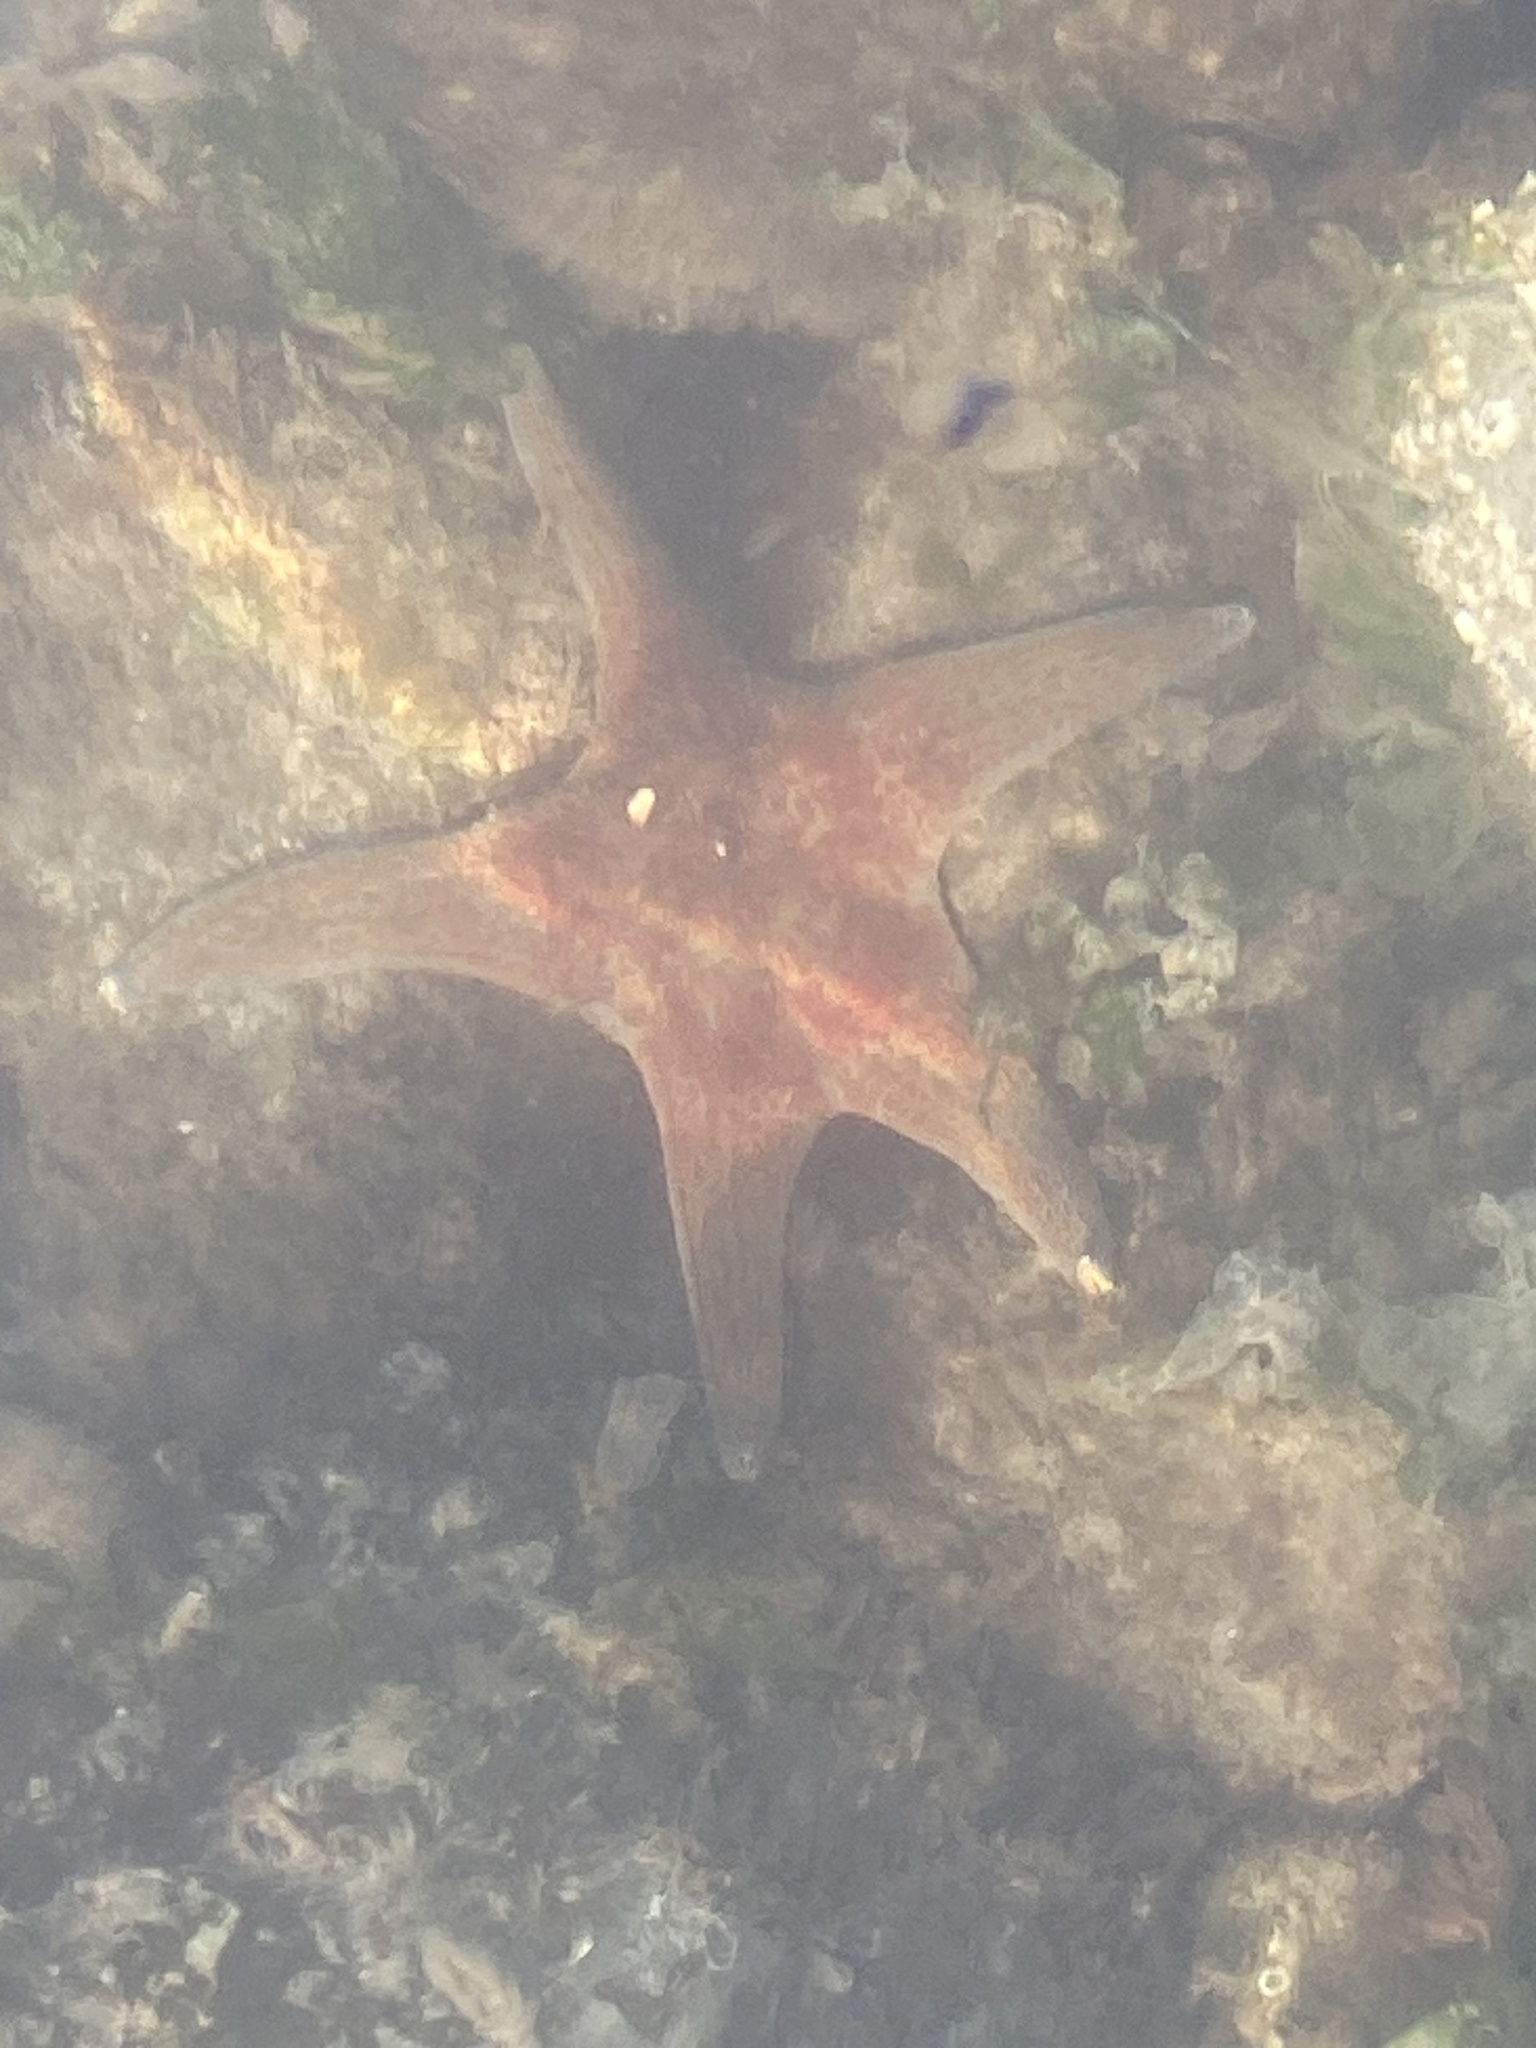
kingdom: Animalia
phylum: Echinodermata
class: Asteroidea
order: Valvatida
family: Asteropseidae
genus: Dermasterias
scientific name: Dermasterias imbricata
